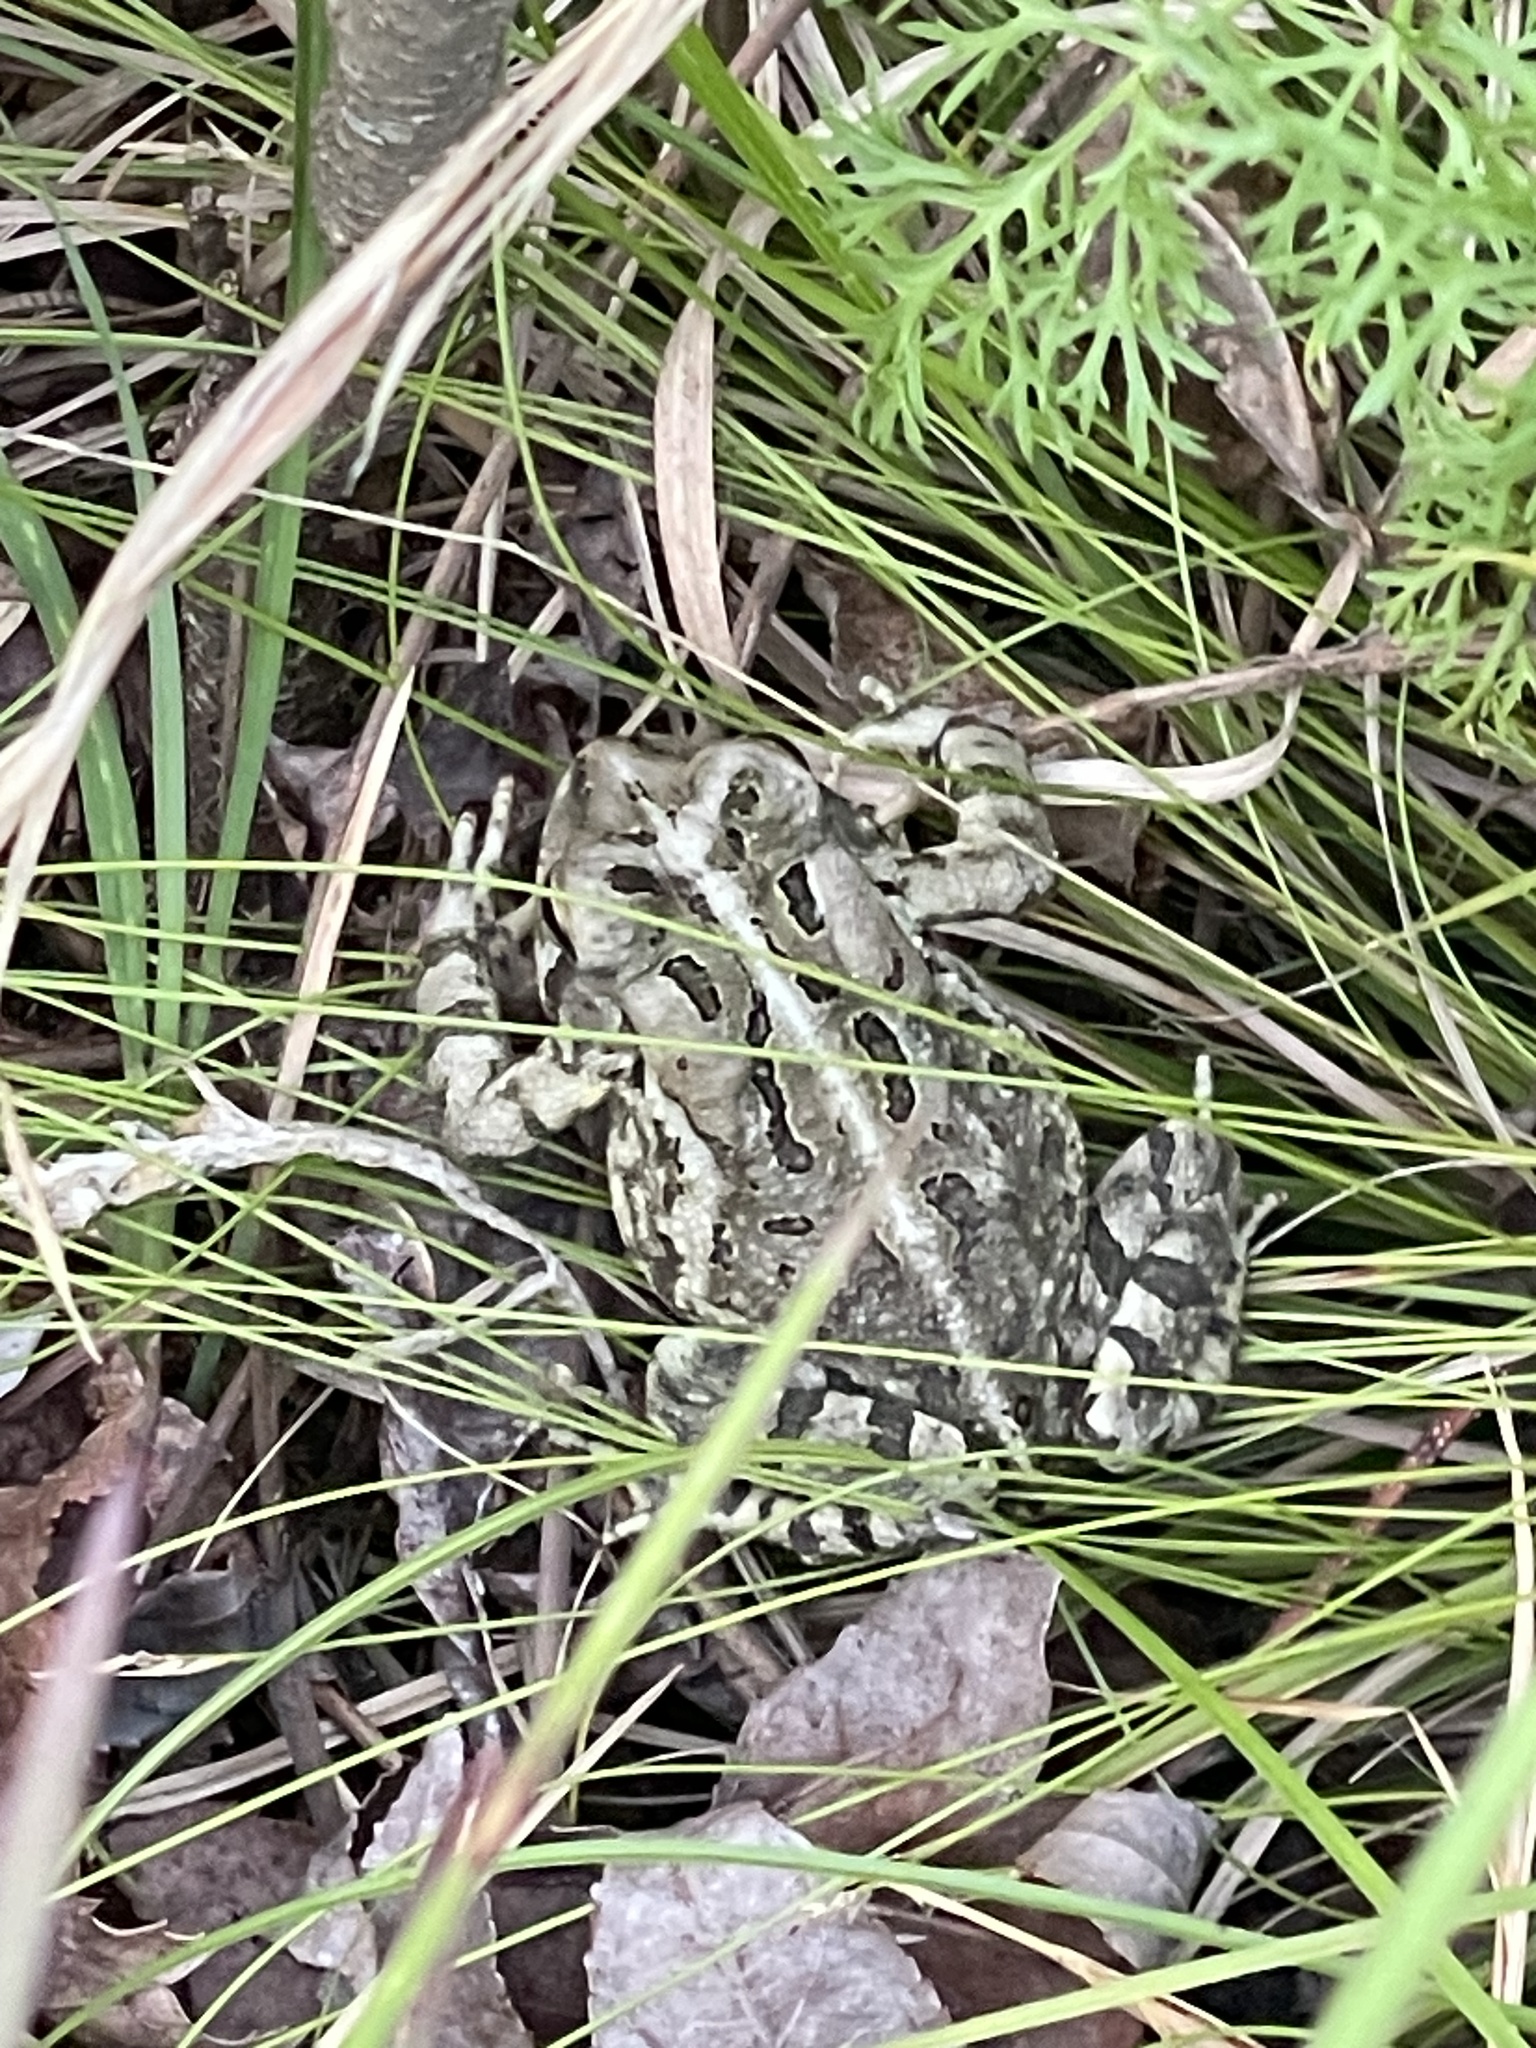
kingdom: Animalia
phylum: Chordata
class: Amphibia
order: Anura
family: Bufonidae
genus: Anaxyrus
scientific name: Anaxyrus fowleri
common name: Fowler's toad
